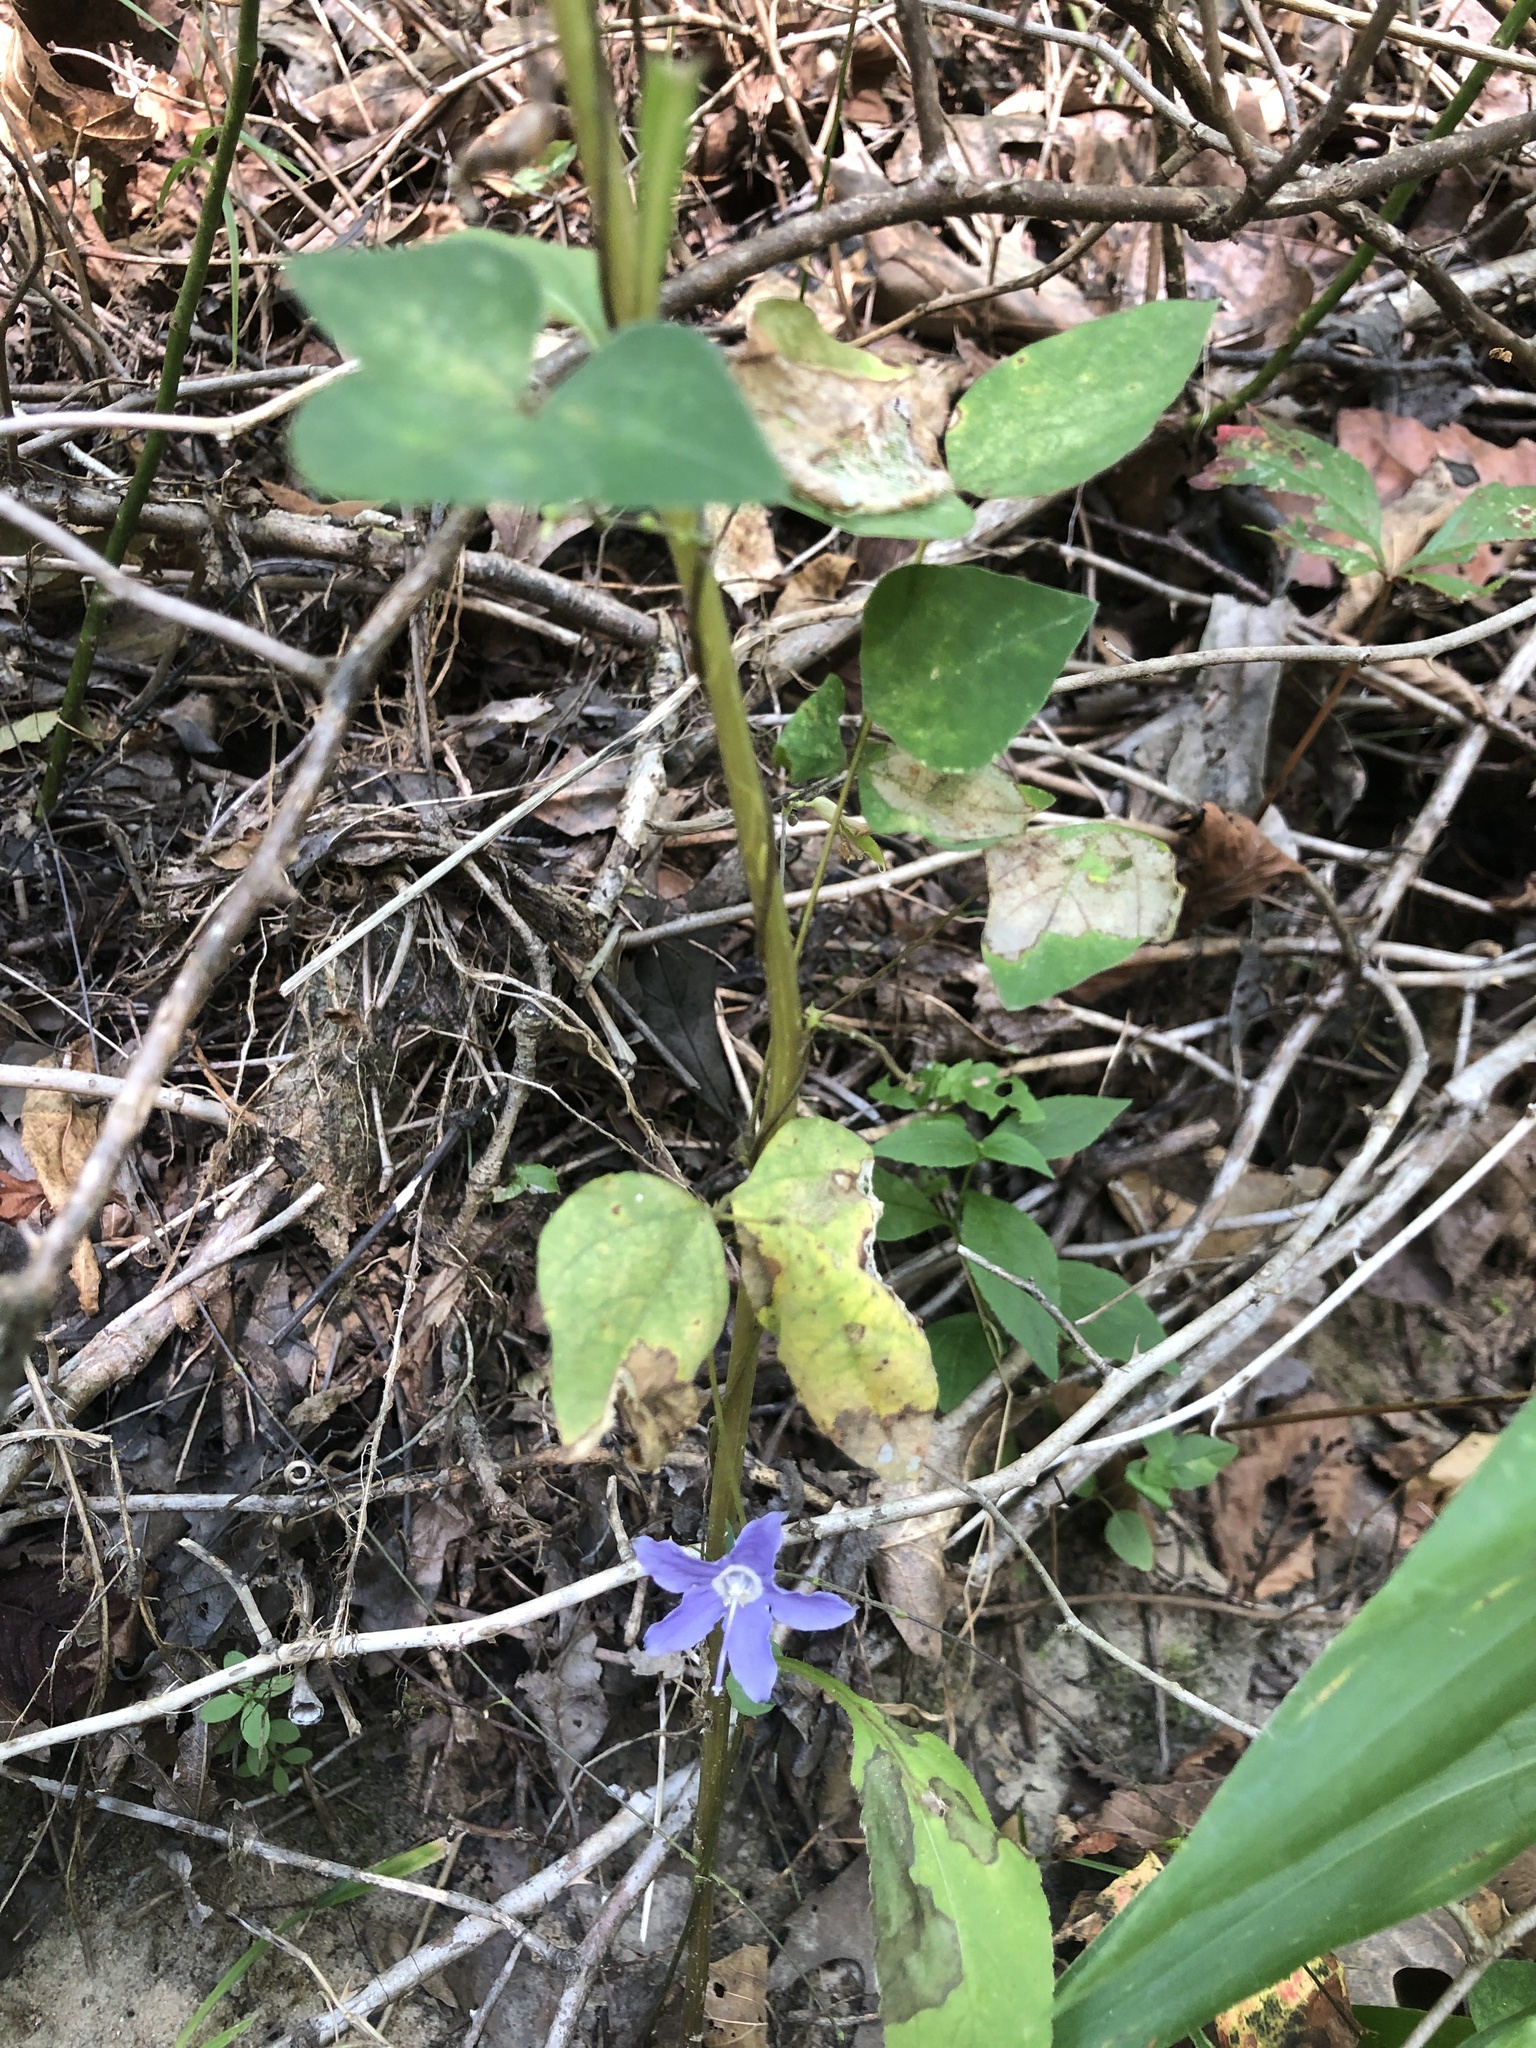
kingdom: Plantae
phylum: Tracheophyta
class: Magnoliopsida
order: Asterales
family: Campanulaceae
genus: Campanulastrum
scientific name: Campanulastrum americanum
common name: American bellflower
